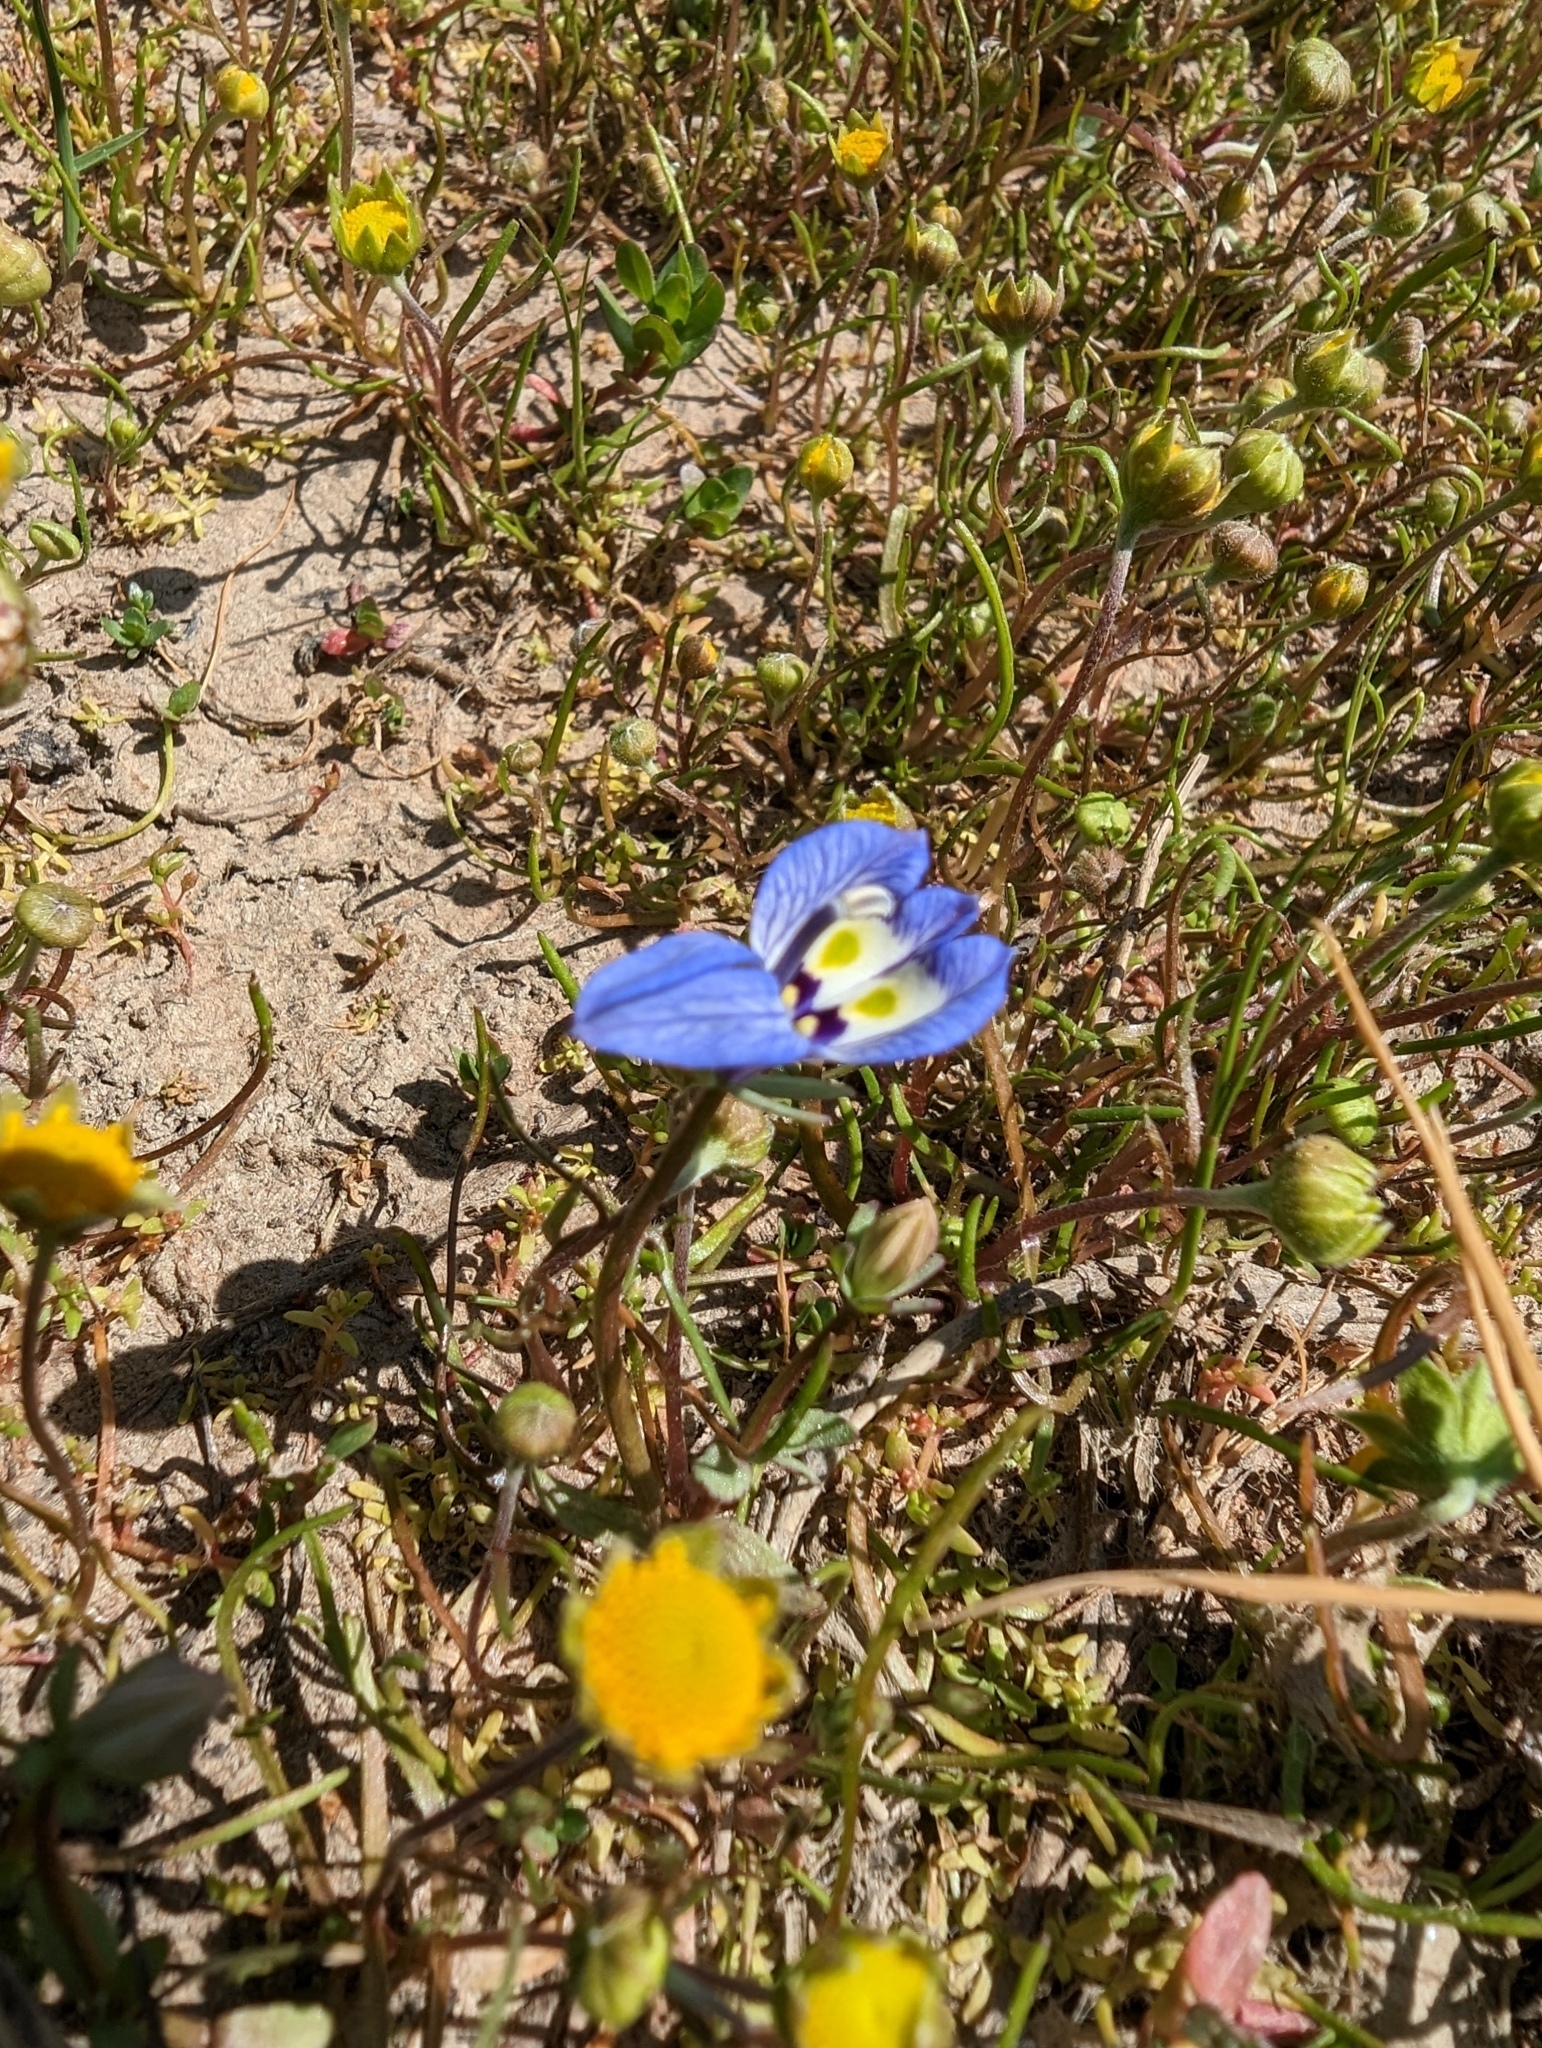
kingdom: Plantae
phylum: Tracheophyta
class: Magnoliopsida
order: Asterales
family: Campanulaceae
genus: Downingia
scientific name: Downingia insignis
